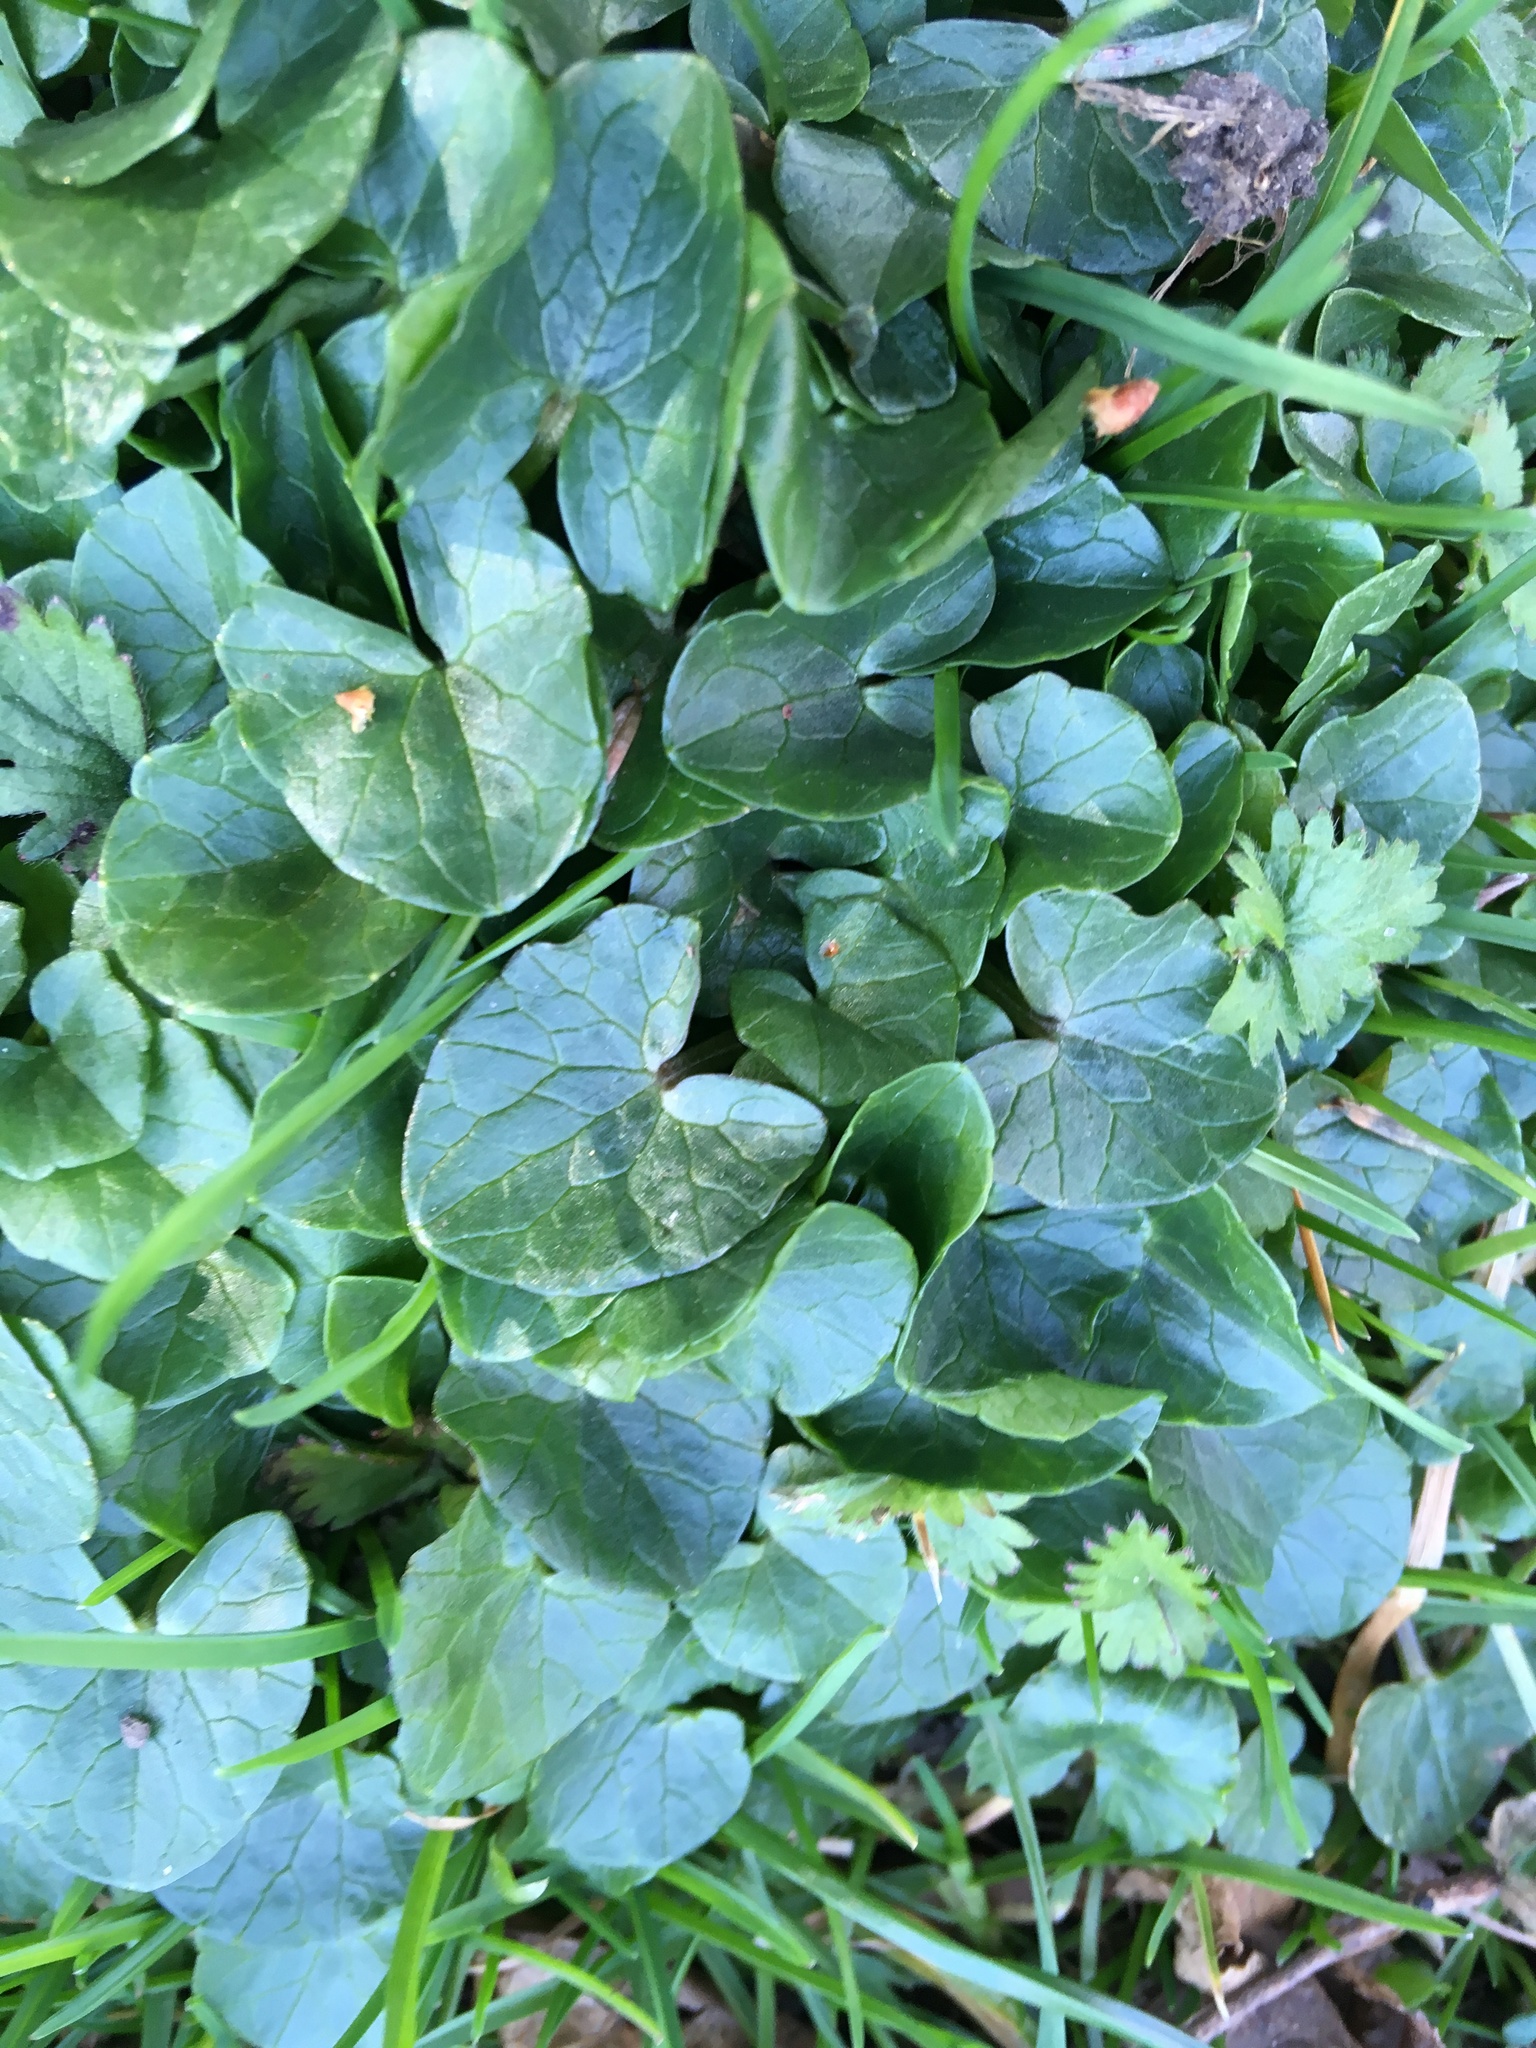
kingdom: Plantae
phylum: Tracheophyta
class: Magnoliopsida
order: Ranunculales
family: Ranunculaceae
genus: Ficaria
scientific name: Ficaria verna
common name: Lesser celandine
